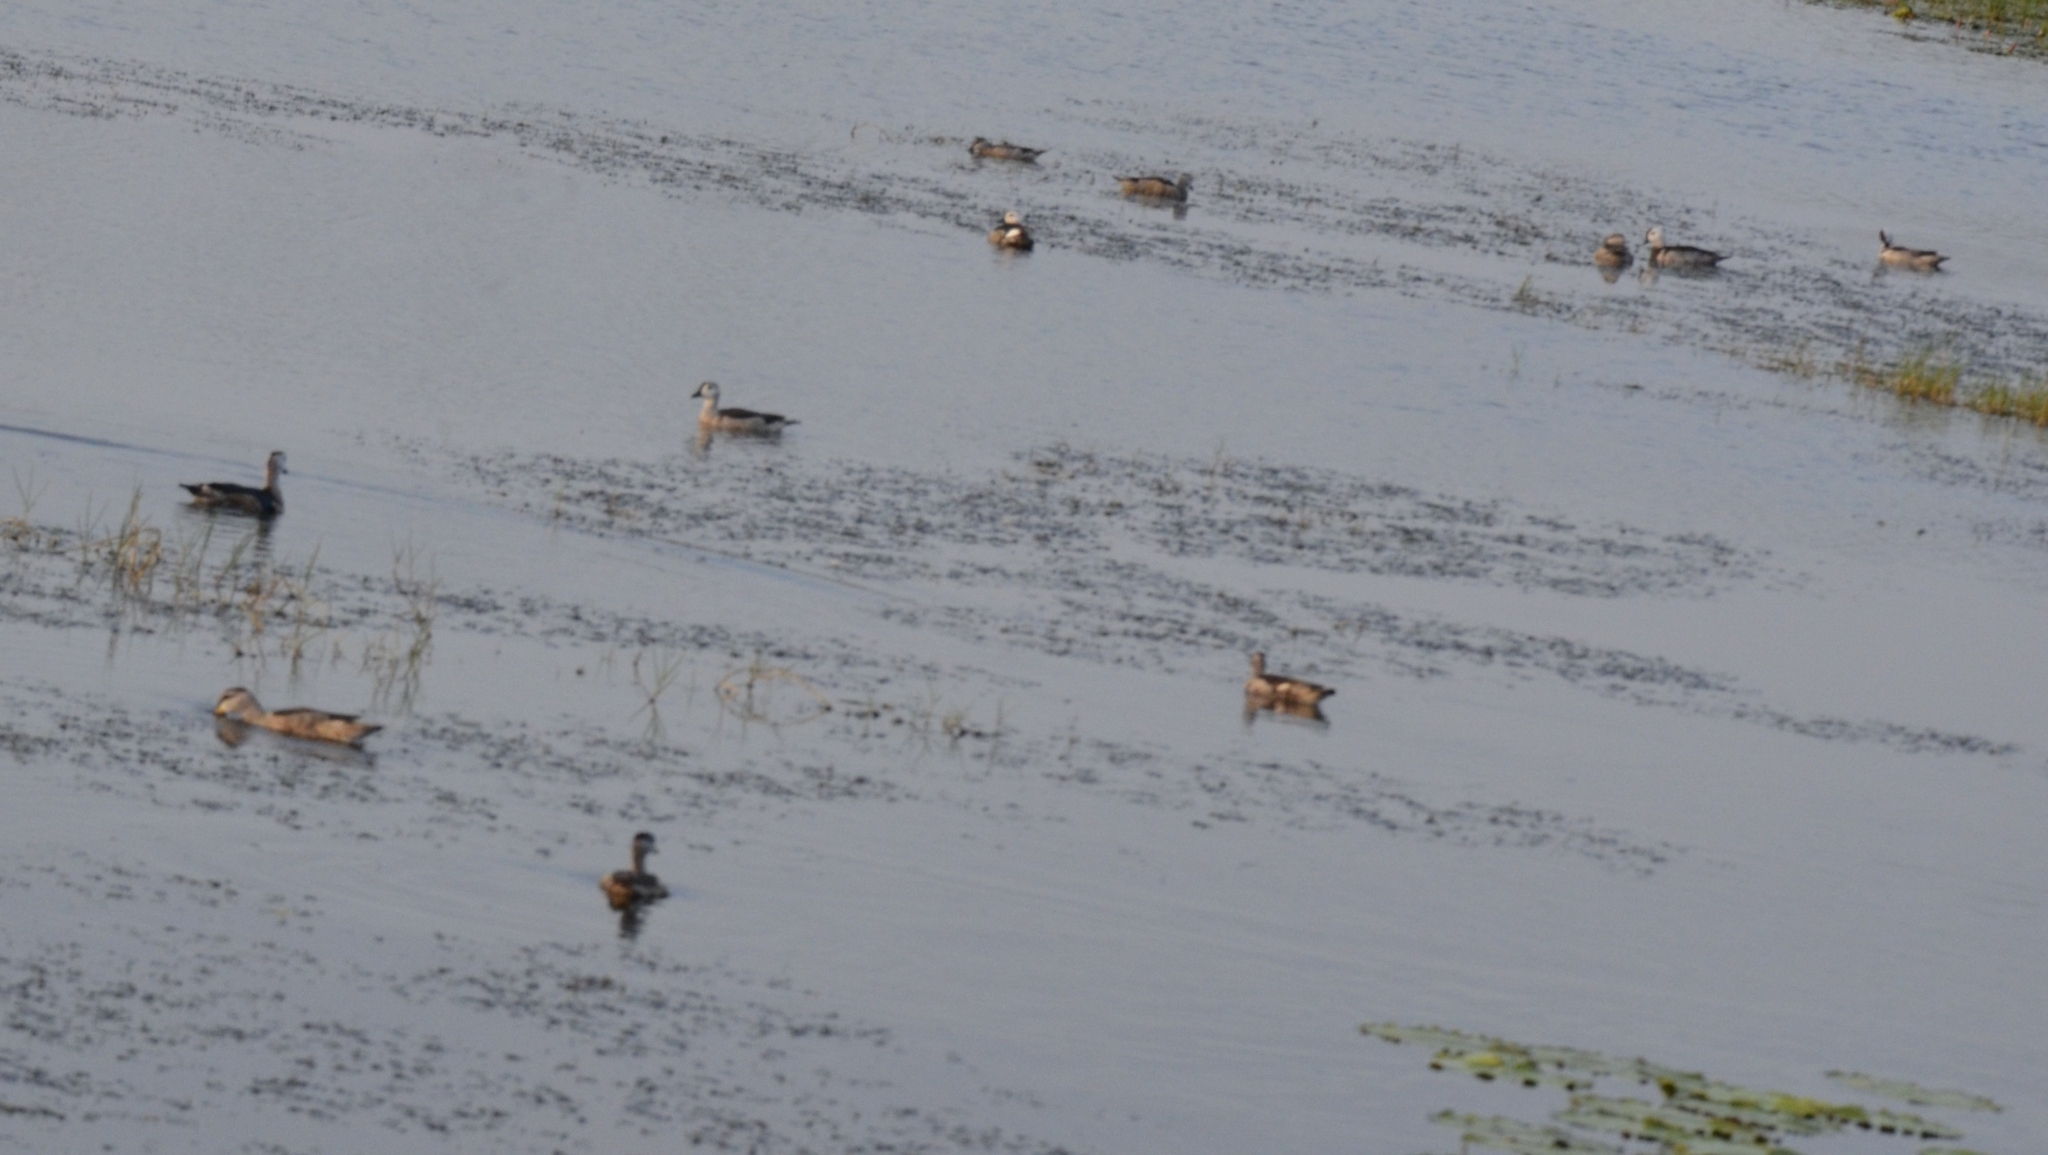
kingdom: Animalia
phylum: Chordata
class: Aves
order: Anseriformes
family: Anatidae
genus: Nettapus
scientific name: Nettapus coromandelianus
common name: Cotton pygmy-goose
